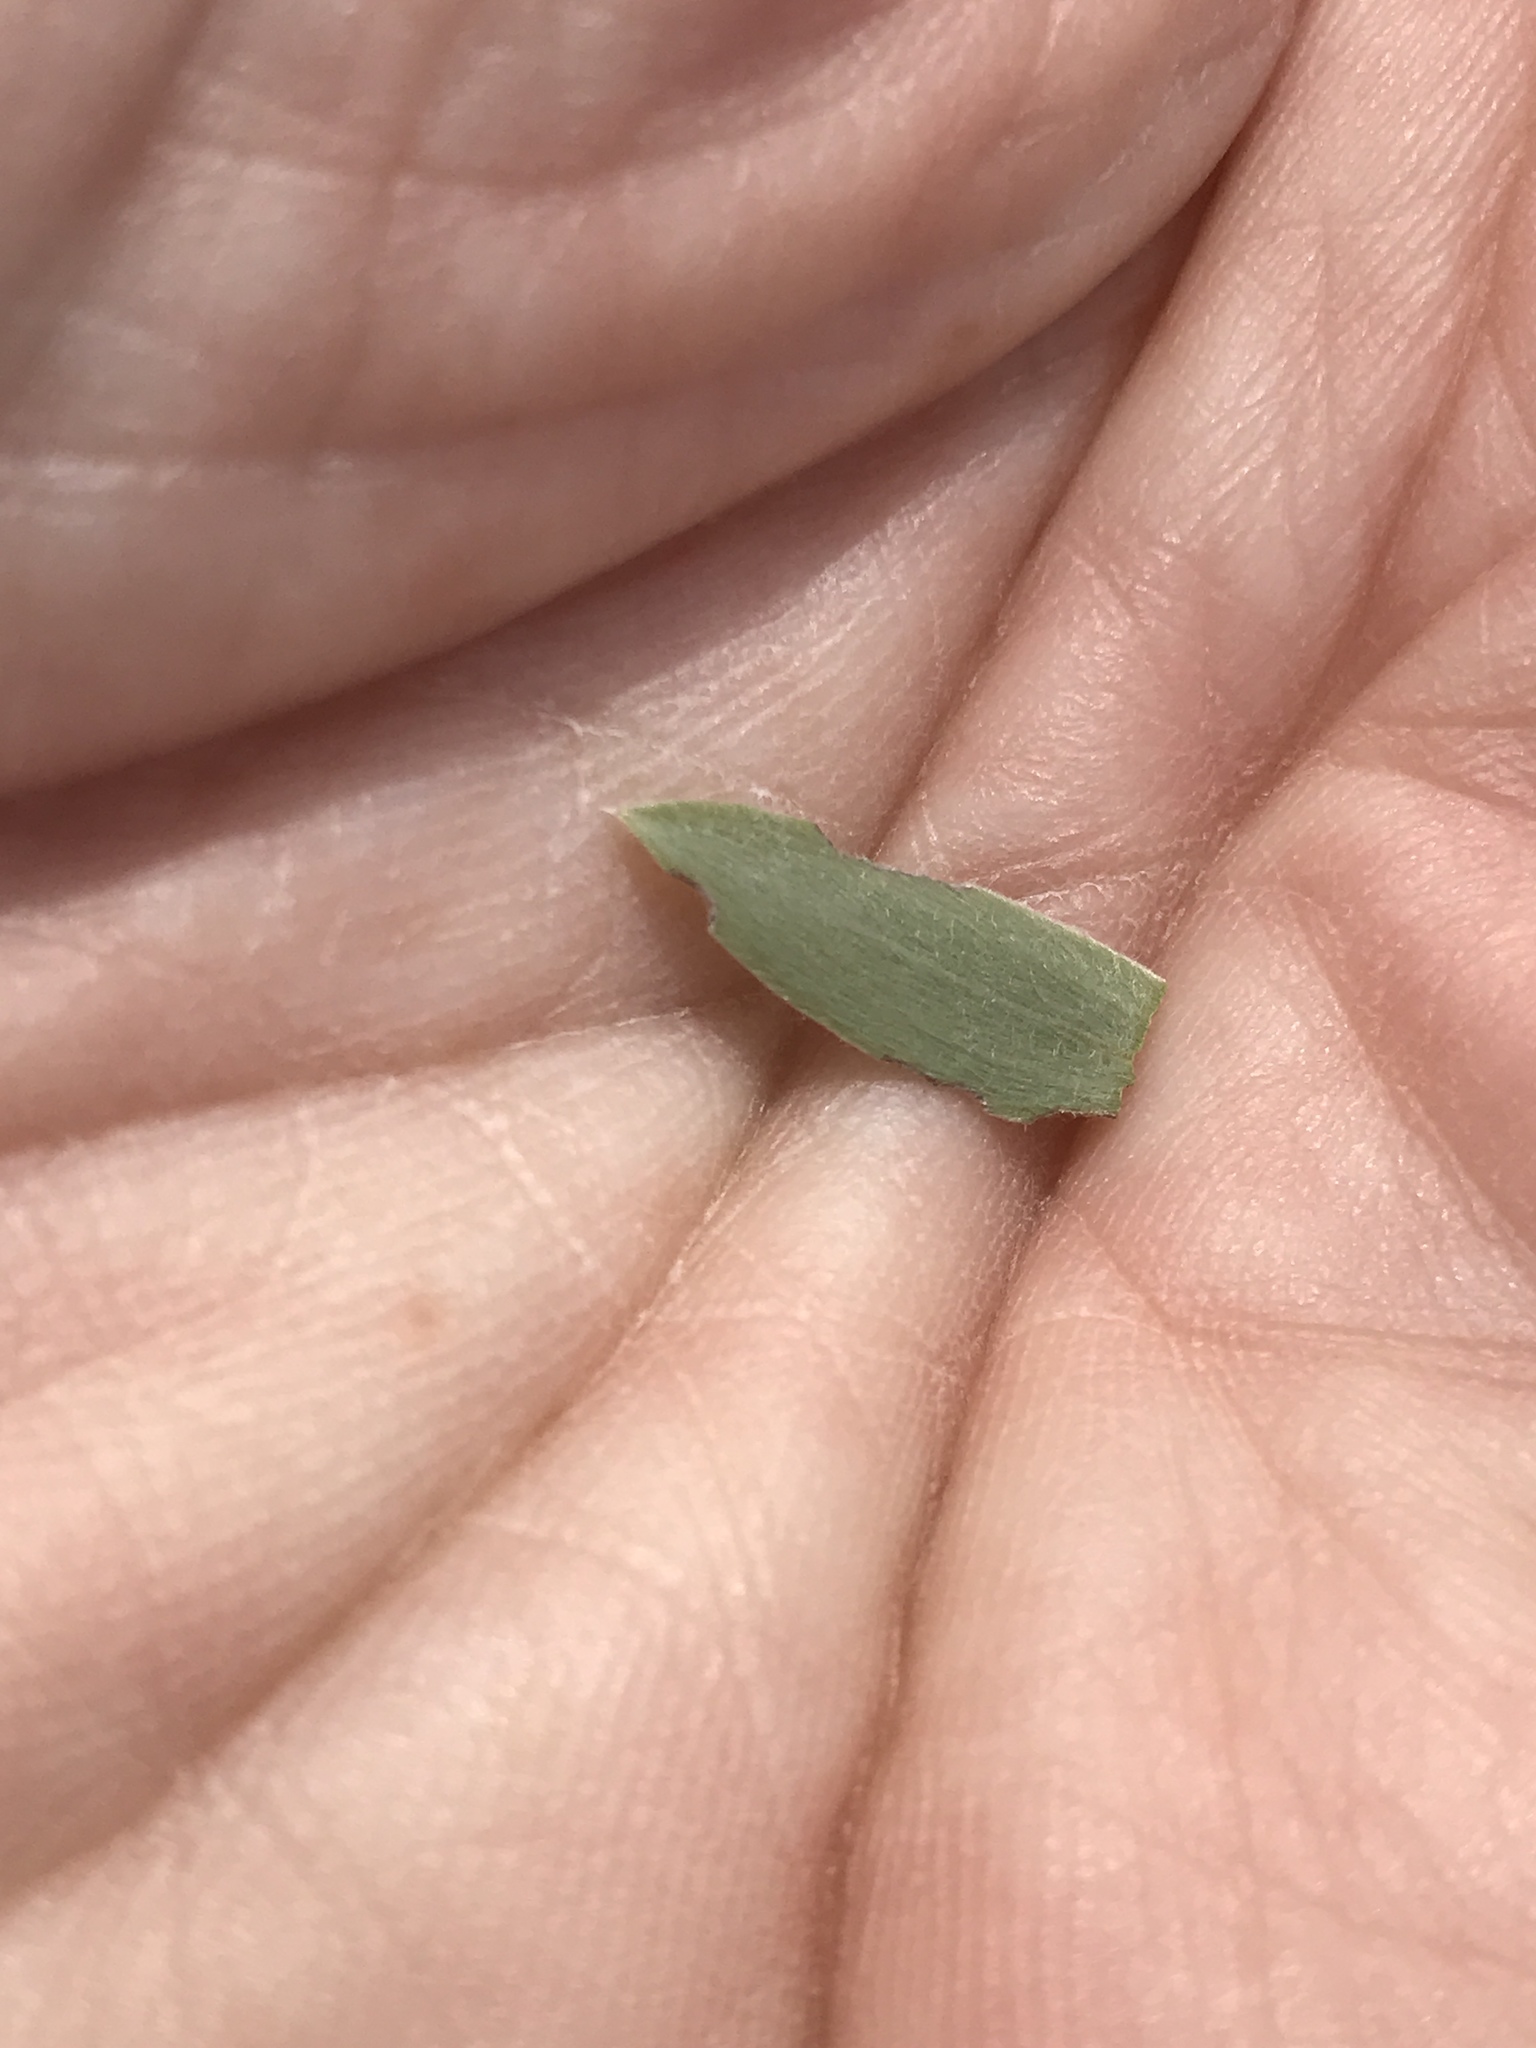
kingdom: Plantae
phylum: Tracheophyta
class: Magnoliopsida
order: Asterales
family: Asteraceae
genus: Symphyotrichum
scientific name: Symphyotrichum sericeum
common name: Silky aster
